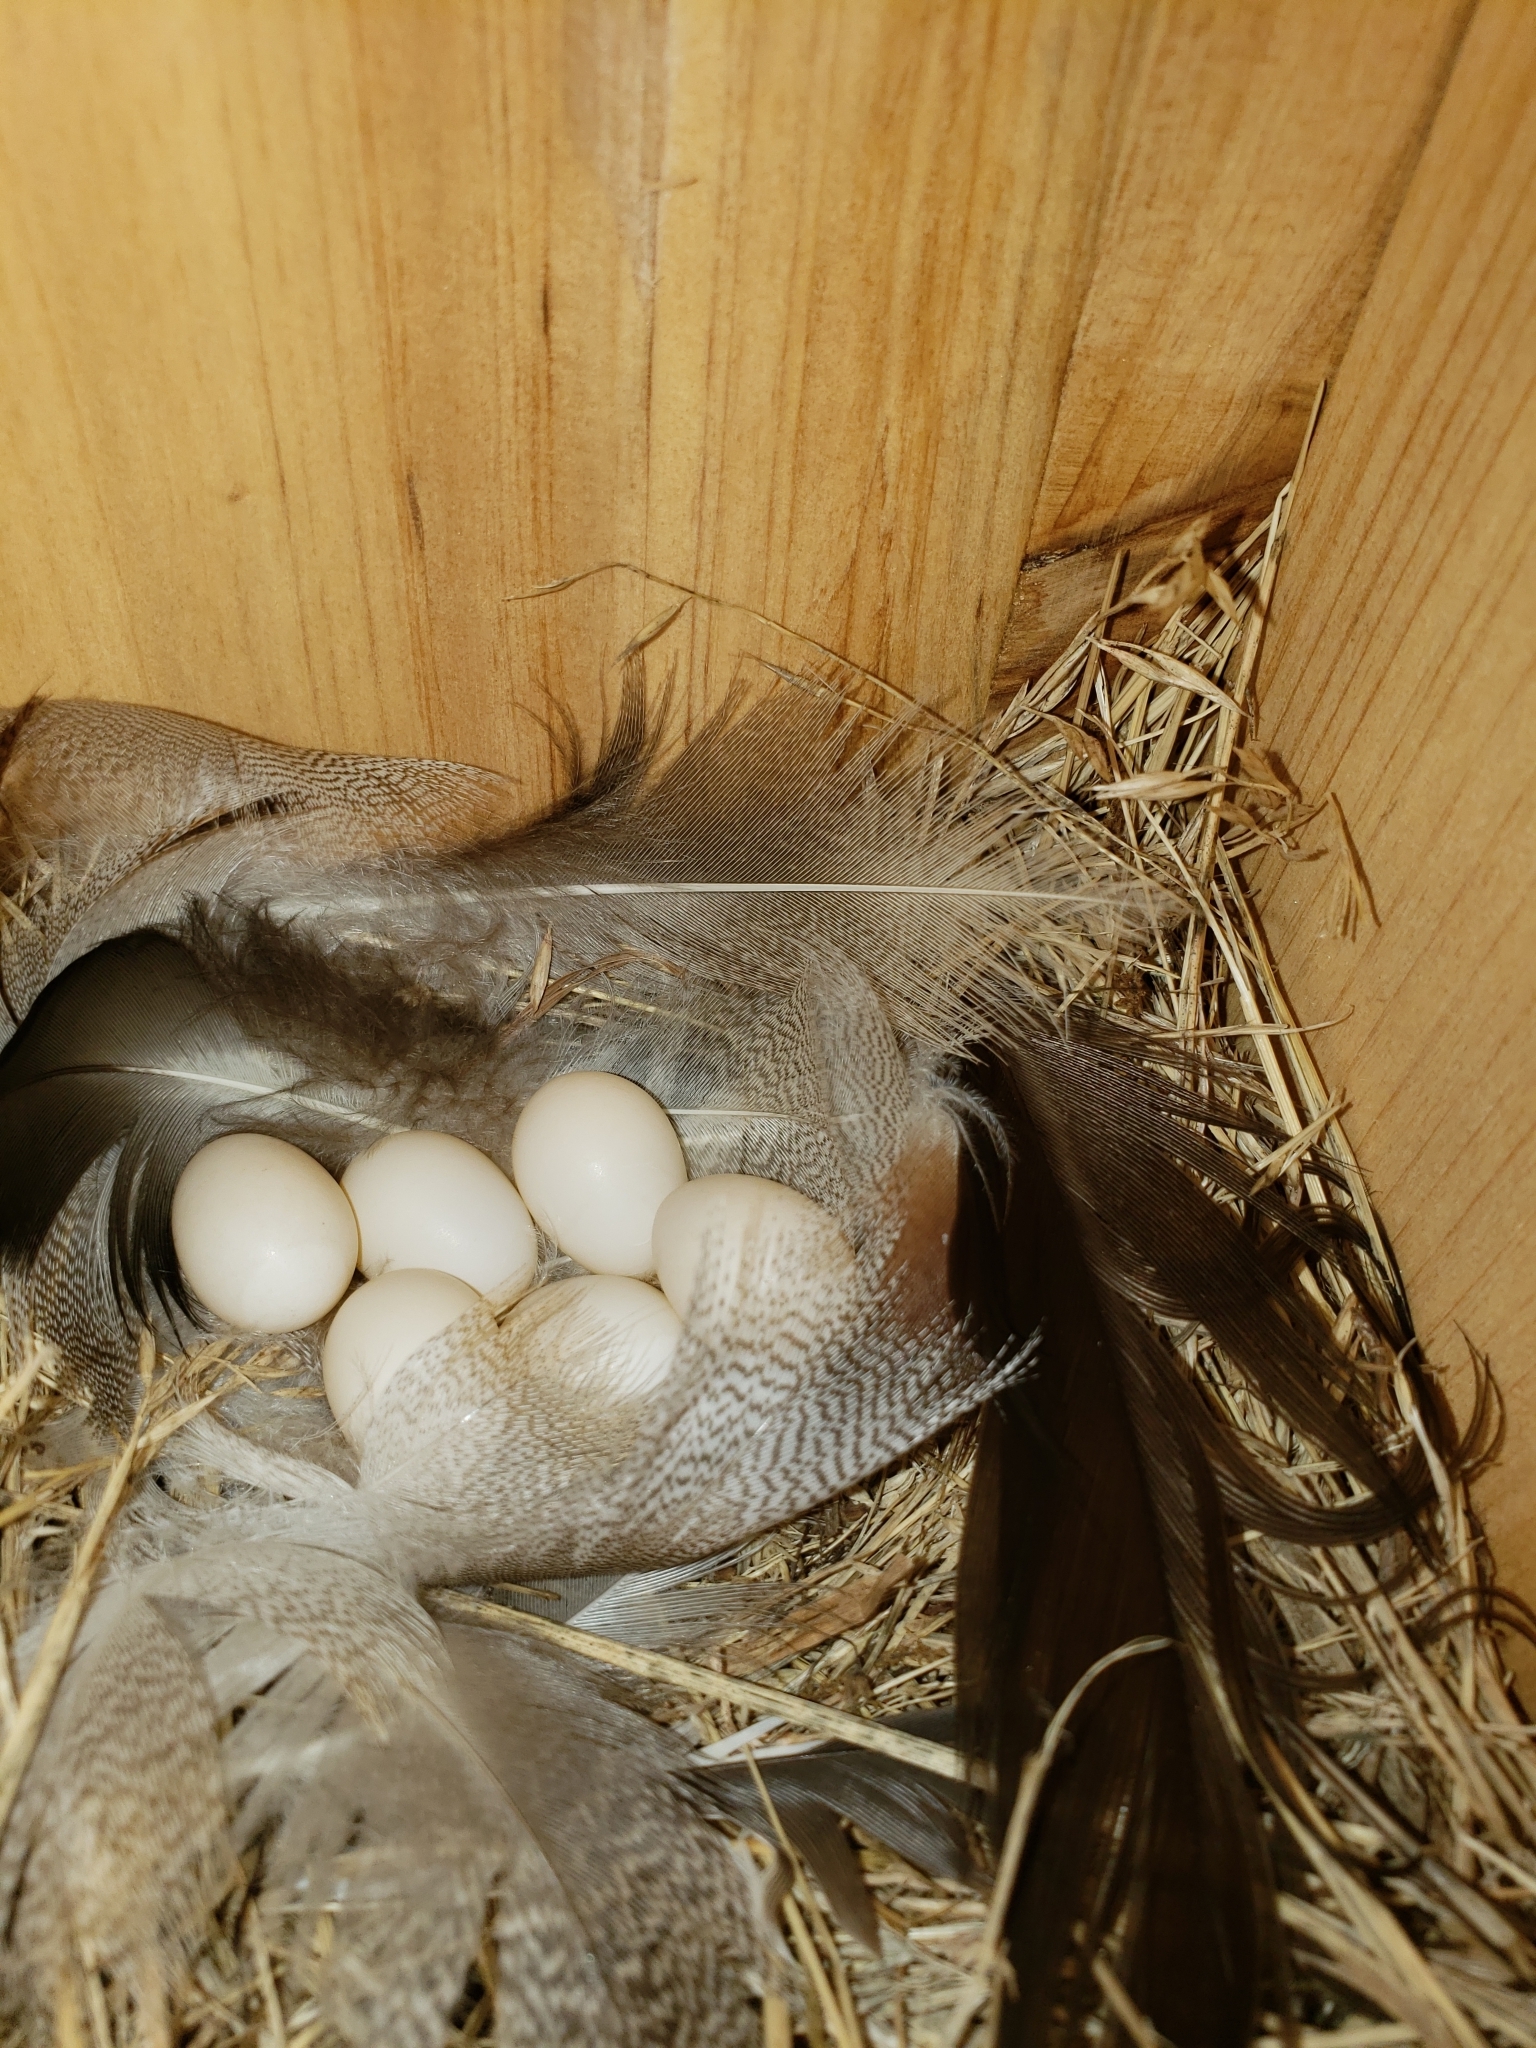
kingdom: Animalia
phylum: Chordata
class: Aves
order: Passeriformes
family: Hirundinidae
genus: Tachycineta
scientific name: Tachycineta bicolor
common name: Tree swallow
